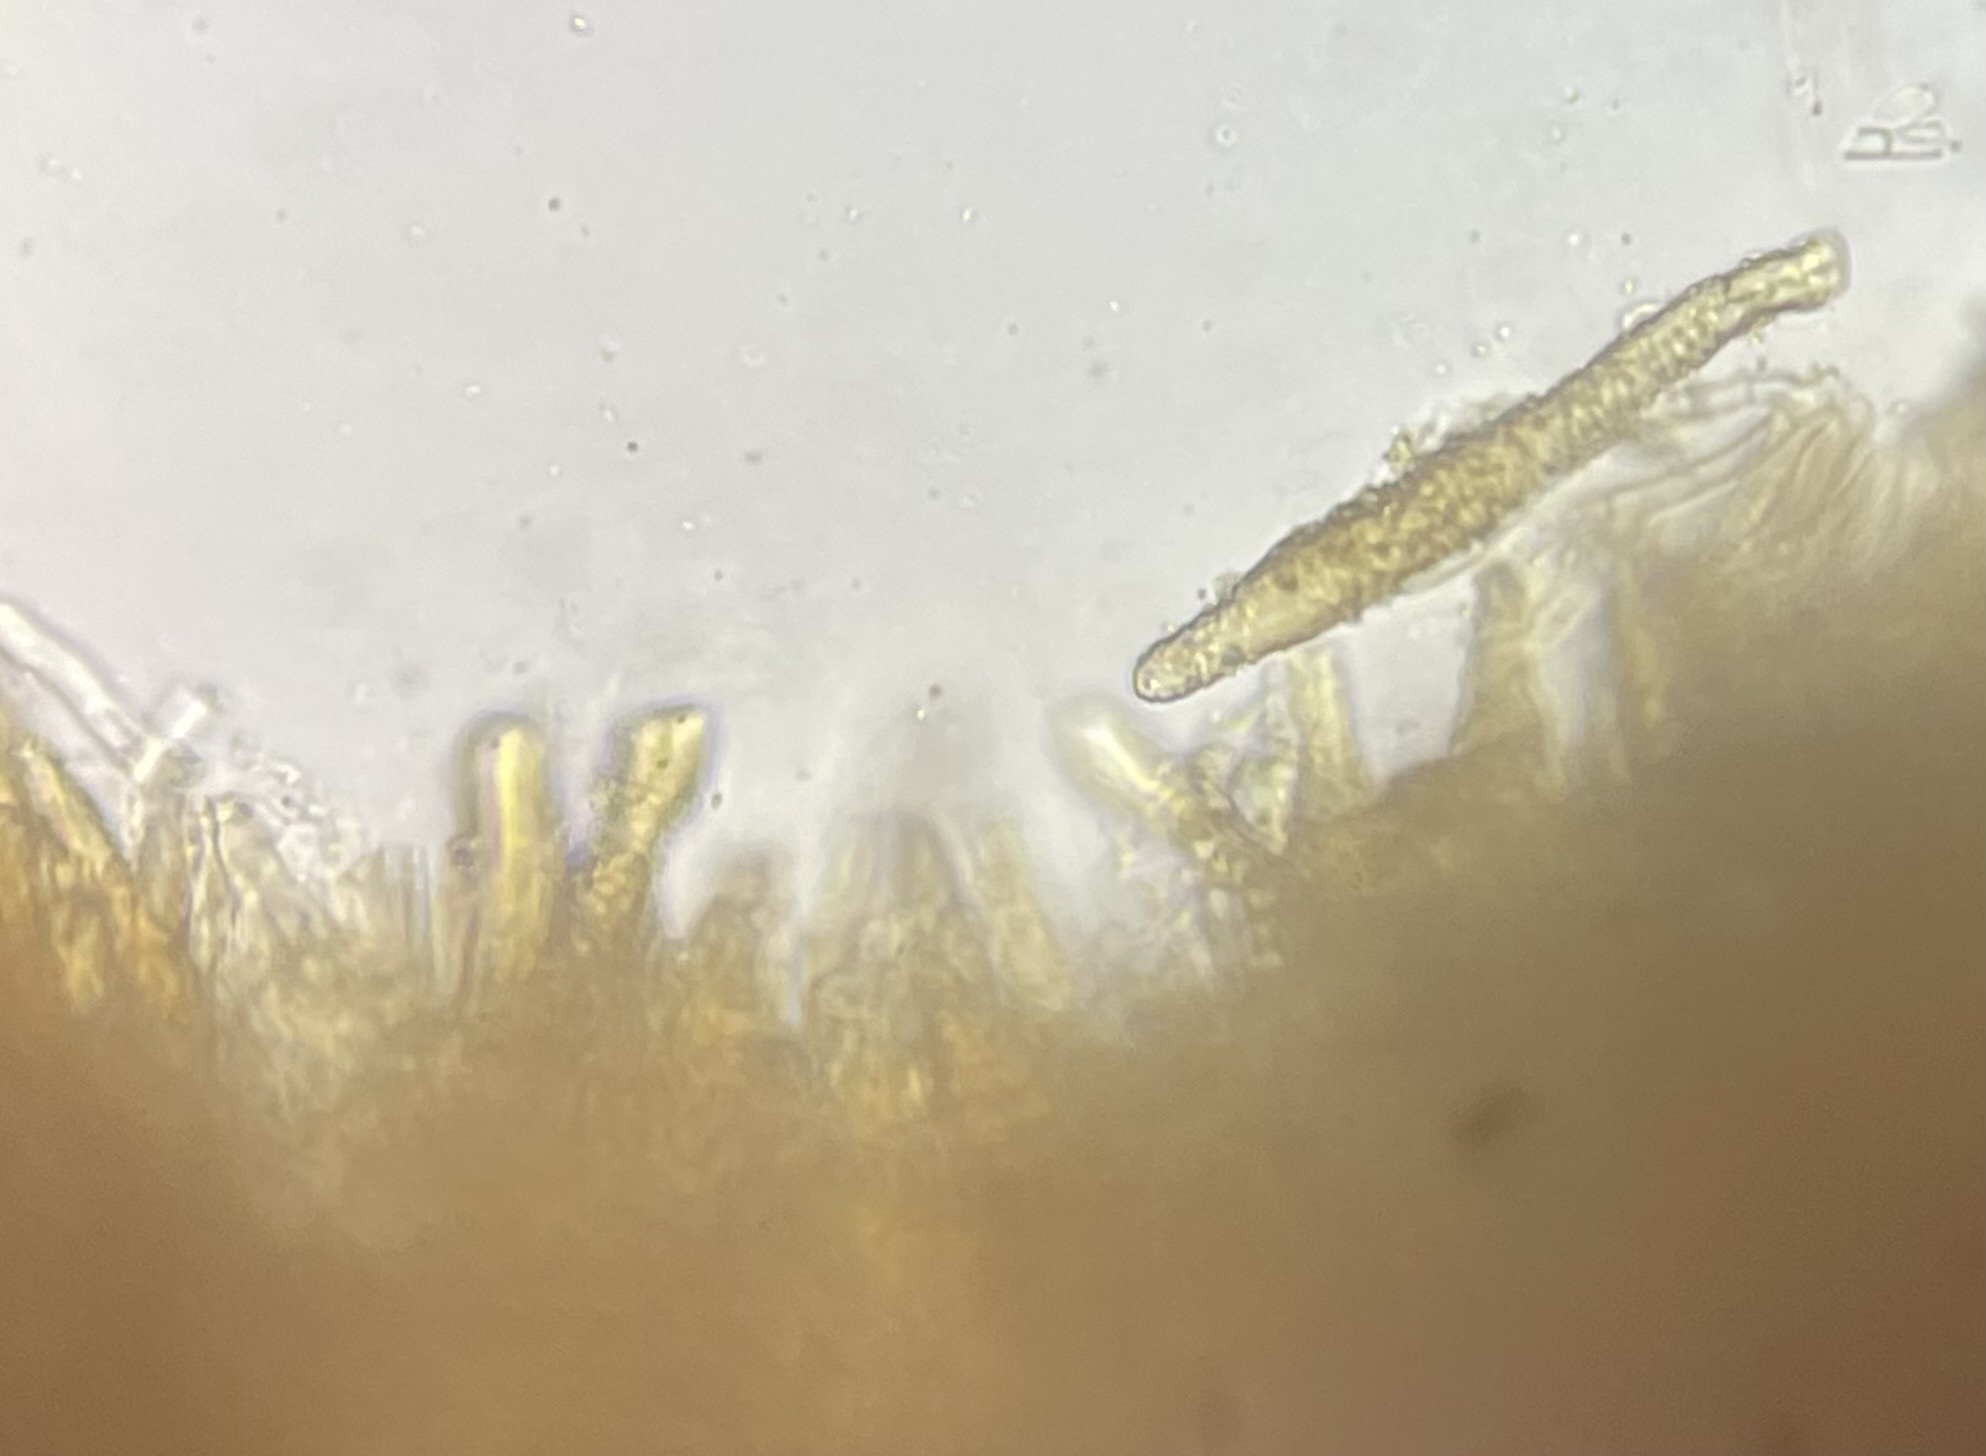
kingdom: Fungi
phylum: Basidiomycota
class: Agaricomycetes
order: Polyporales
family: Phanerochaetaceae
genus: Phlebiopsis
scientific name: Phlebiopsis crassa
